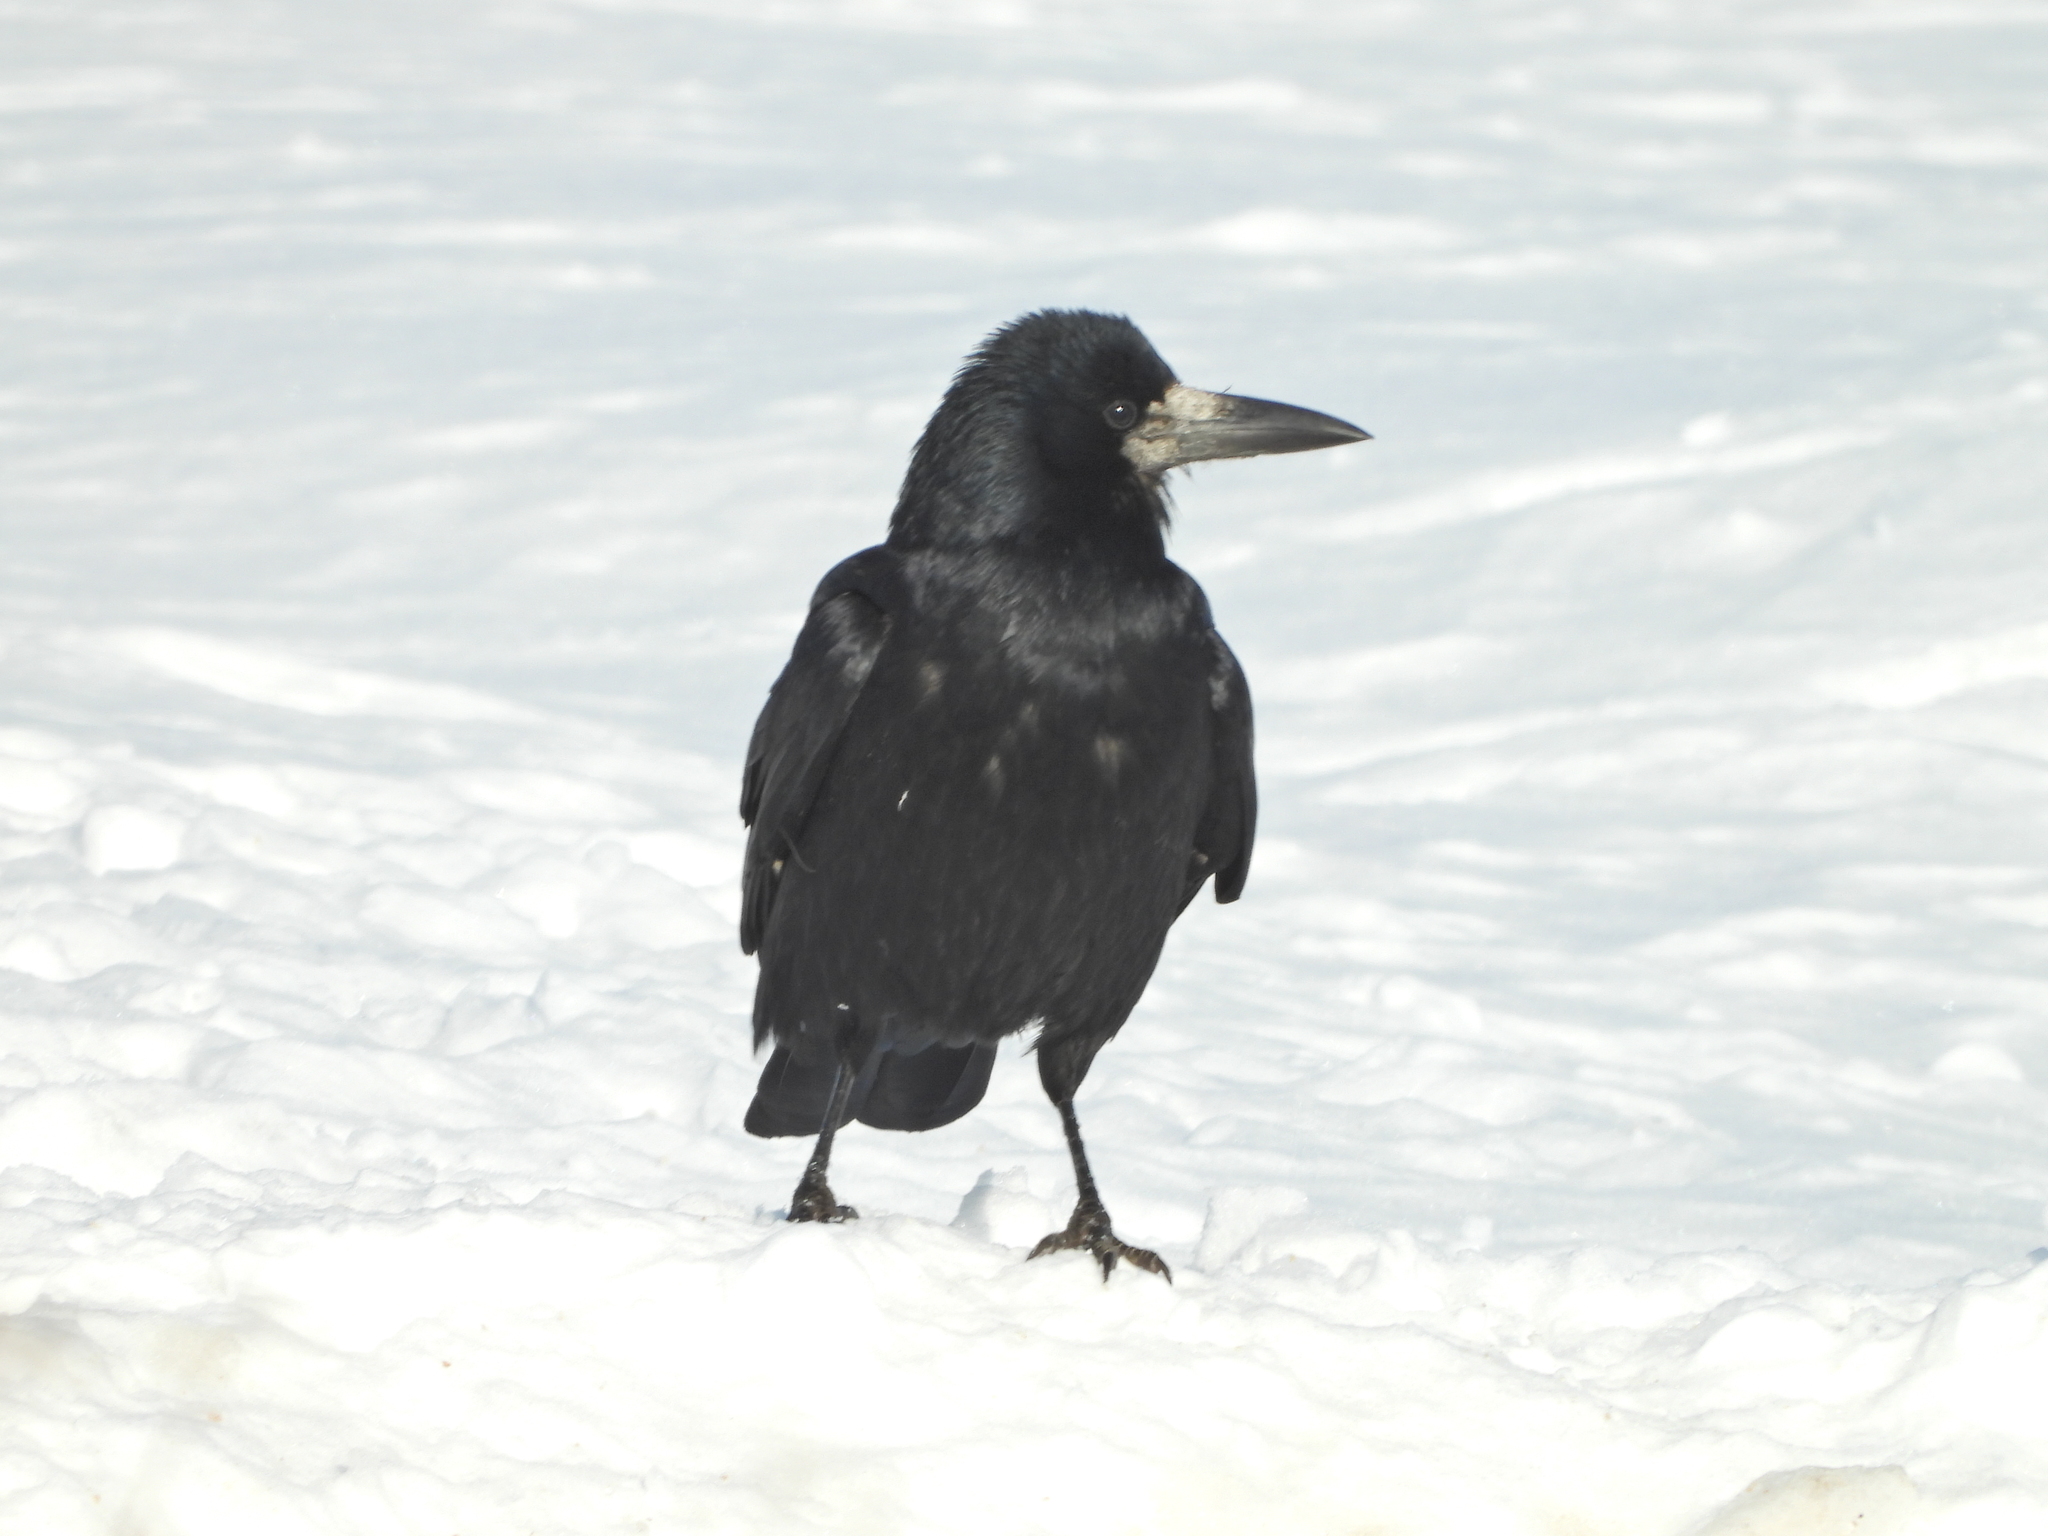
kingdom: Animalia
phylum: Chordata
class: Aves
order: Passeriformes
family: Corvidae
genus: Corvus
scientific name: Corvus frugilegus
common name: Rook
